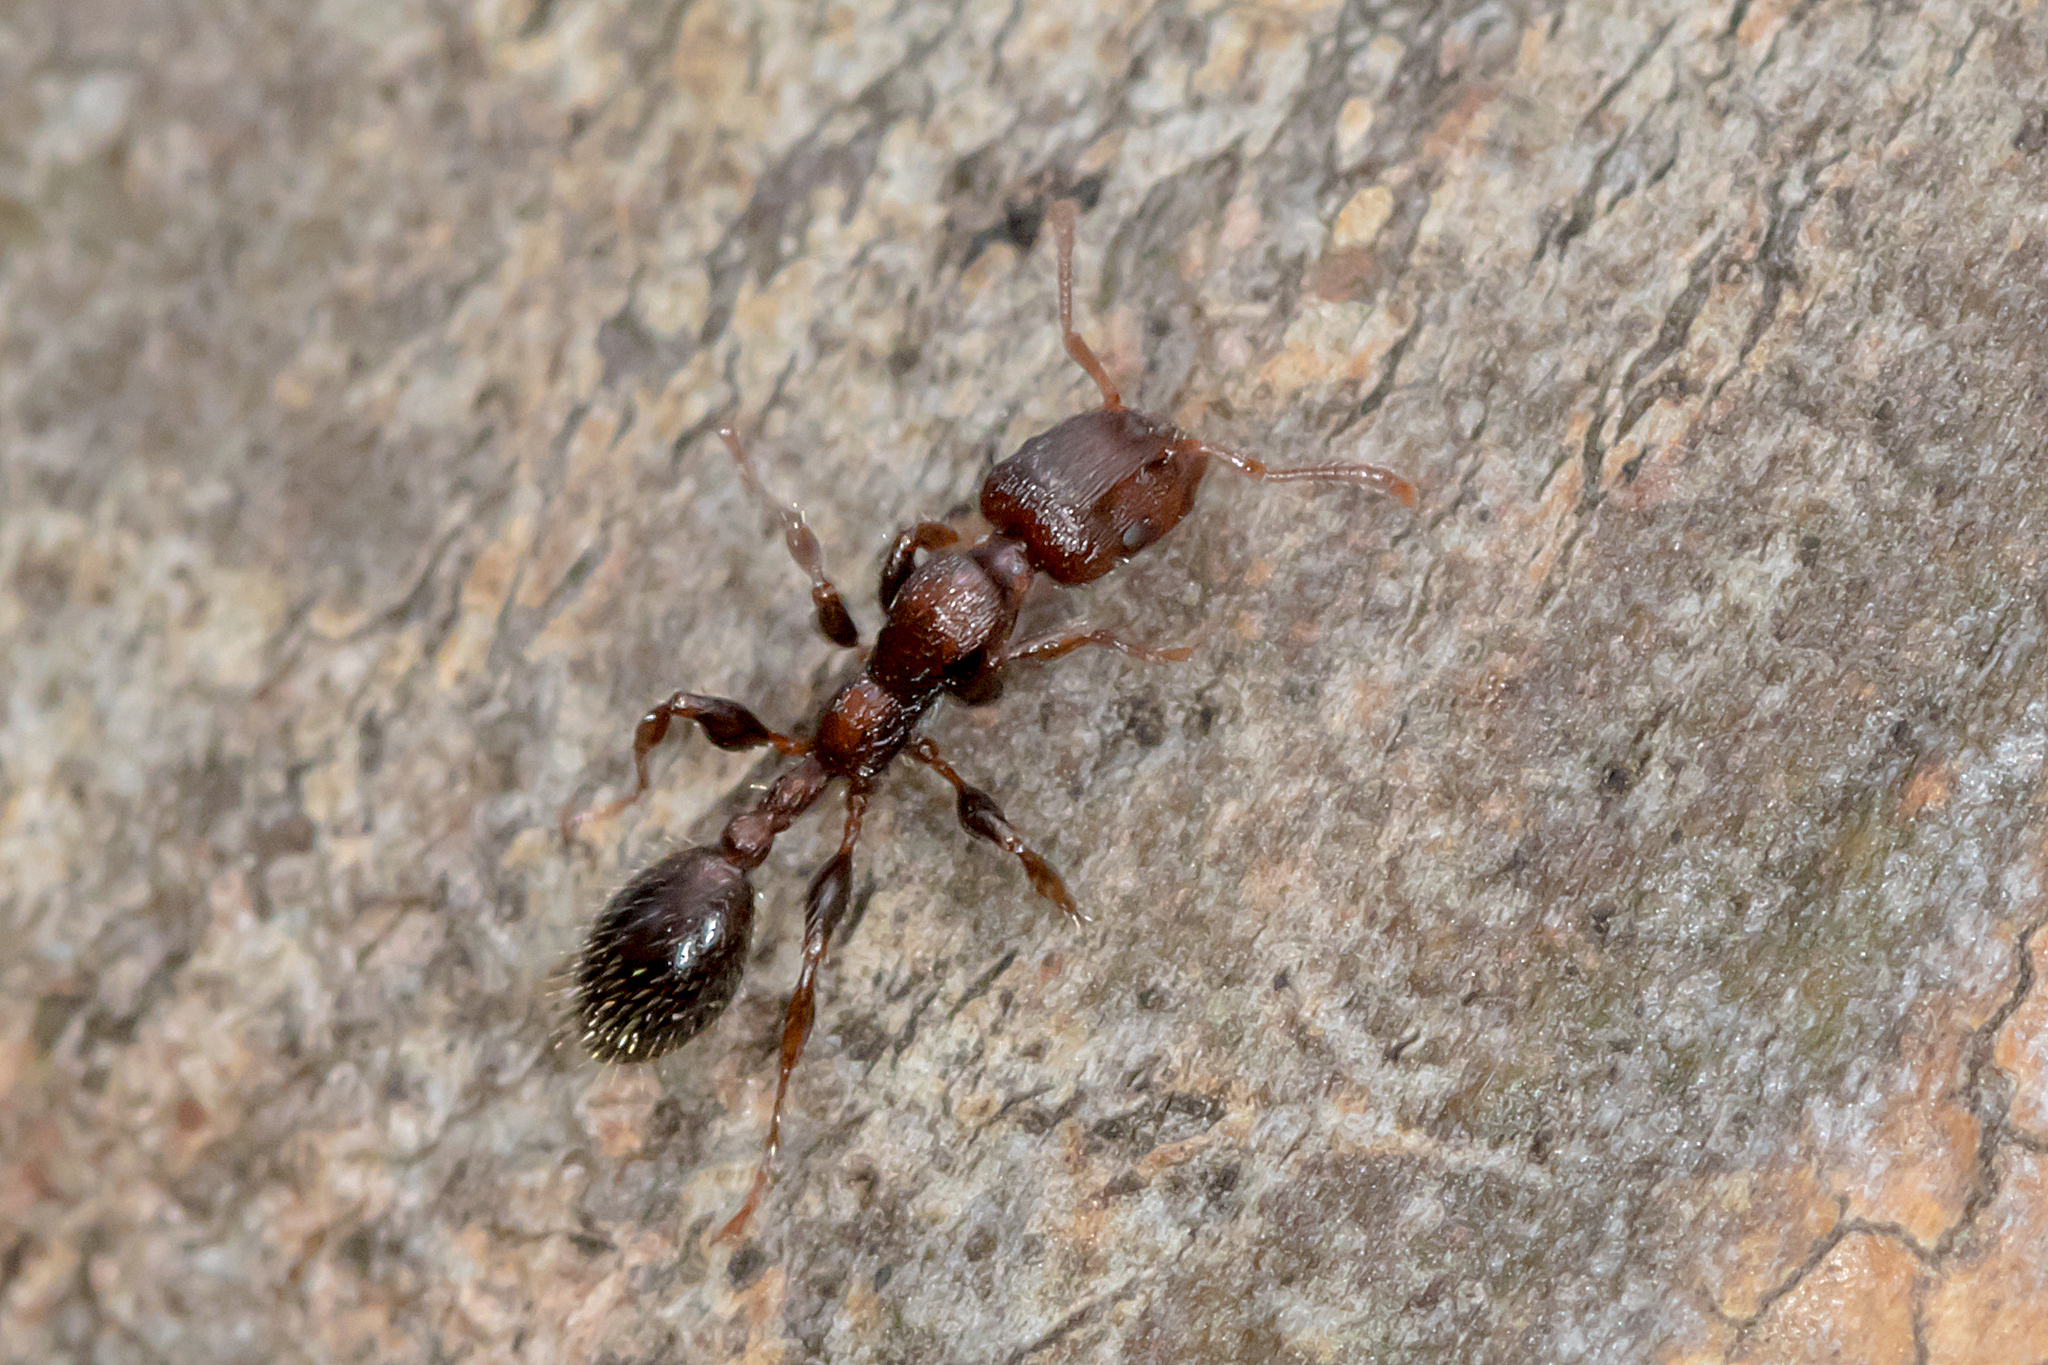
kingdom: Animalia
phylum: Arthropoda
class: Insecta
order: Hymenoptera
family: Formicidae
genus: Podomyrma
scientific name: Podomyrma elongata
